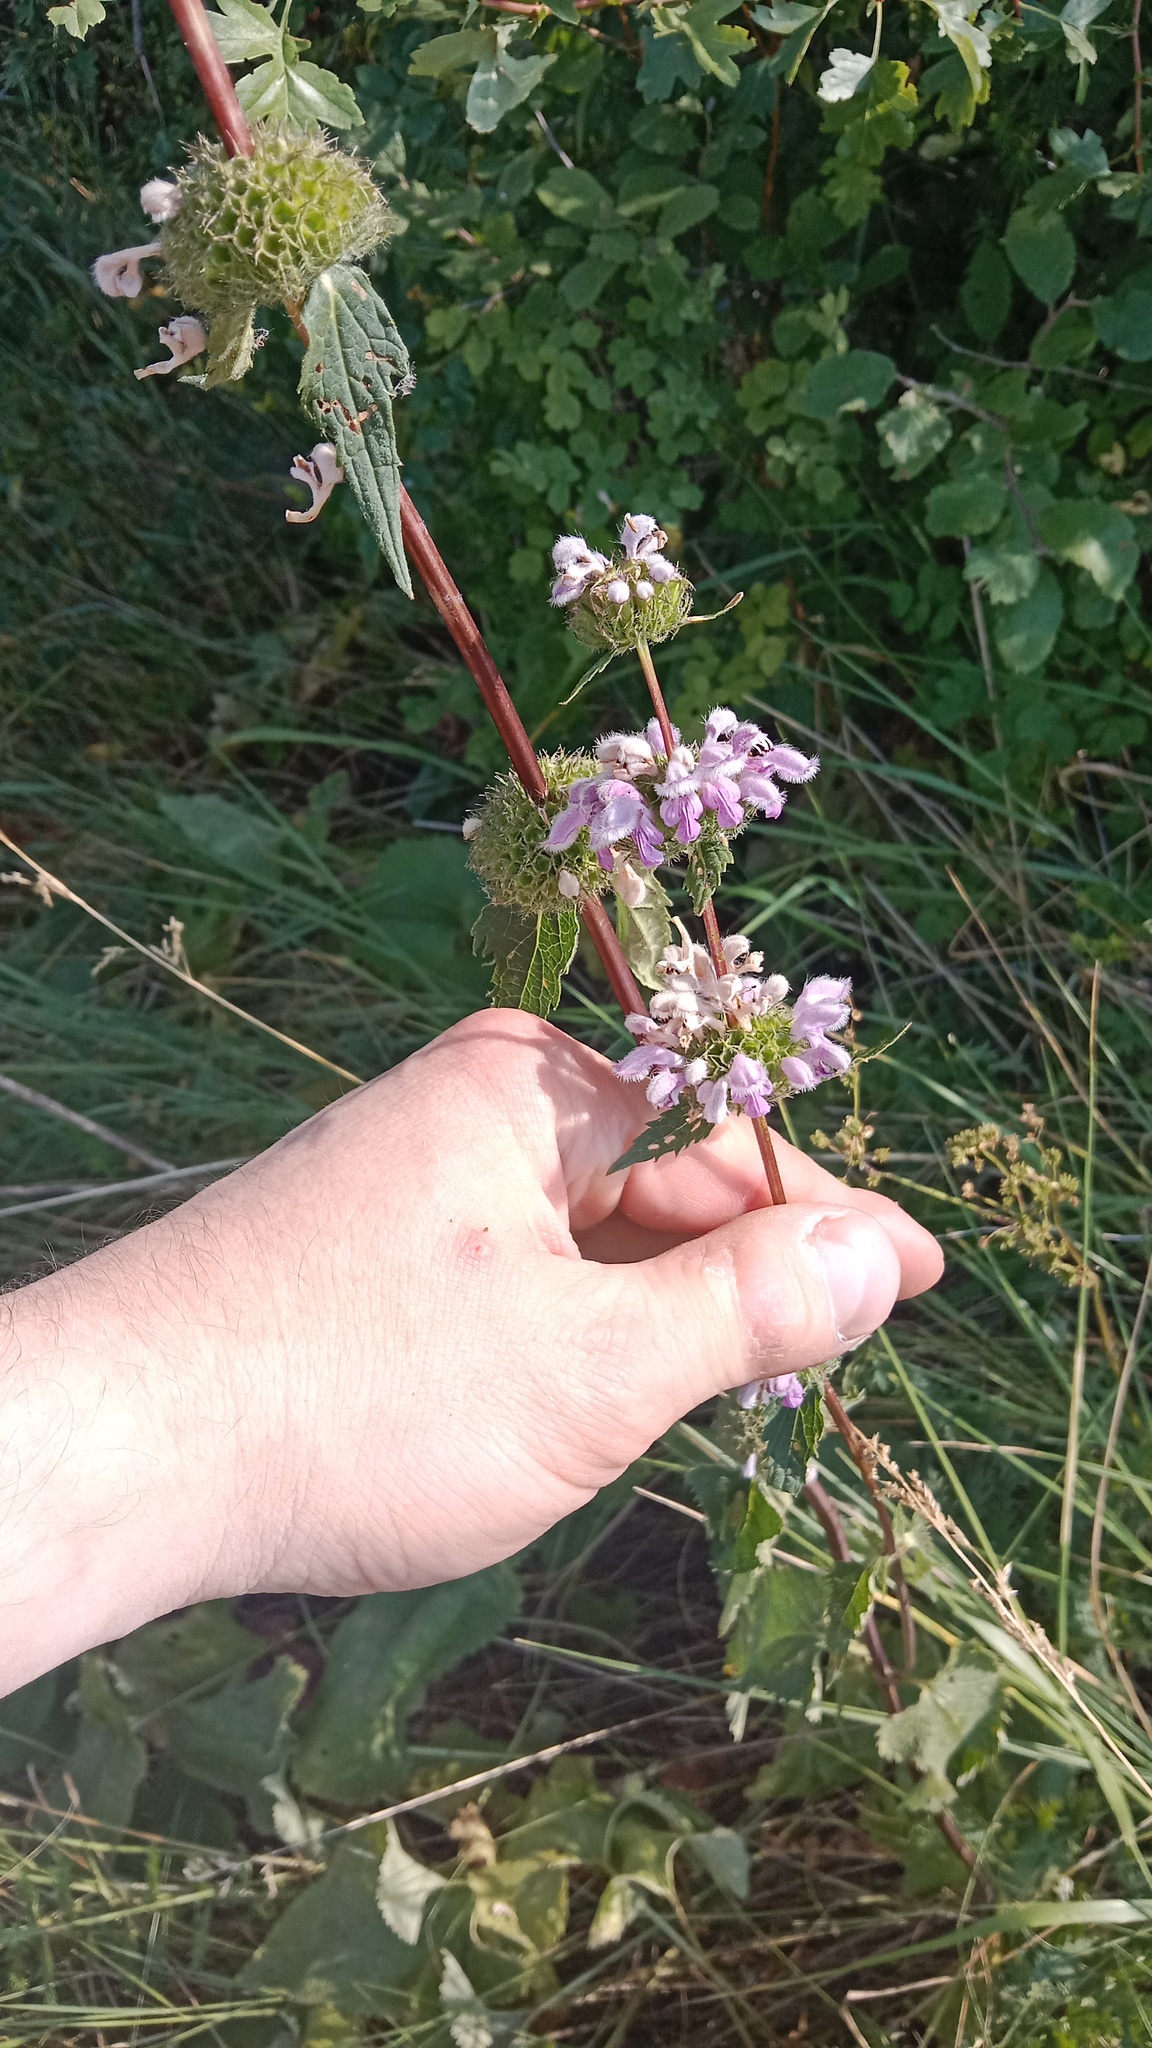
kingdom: Plantae
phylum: Tracheophyta
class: Magnoliopsida
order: Lamiales
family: Lamiaceae
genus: Phlomoides
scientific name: Phlomoides tuberosa
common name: Tuberous jerusalem sage
